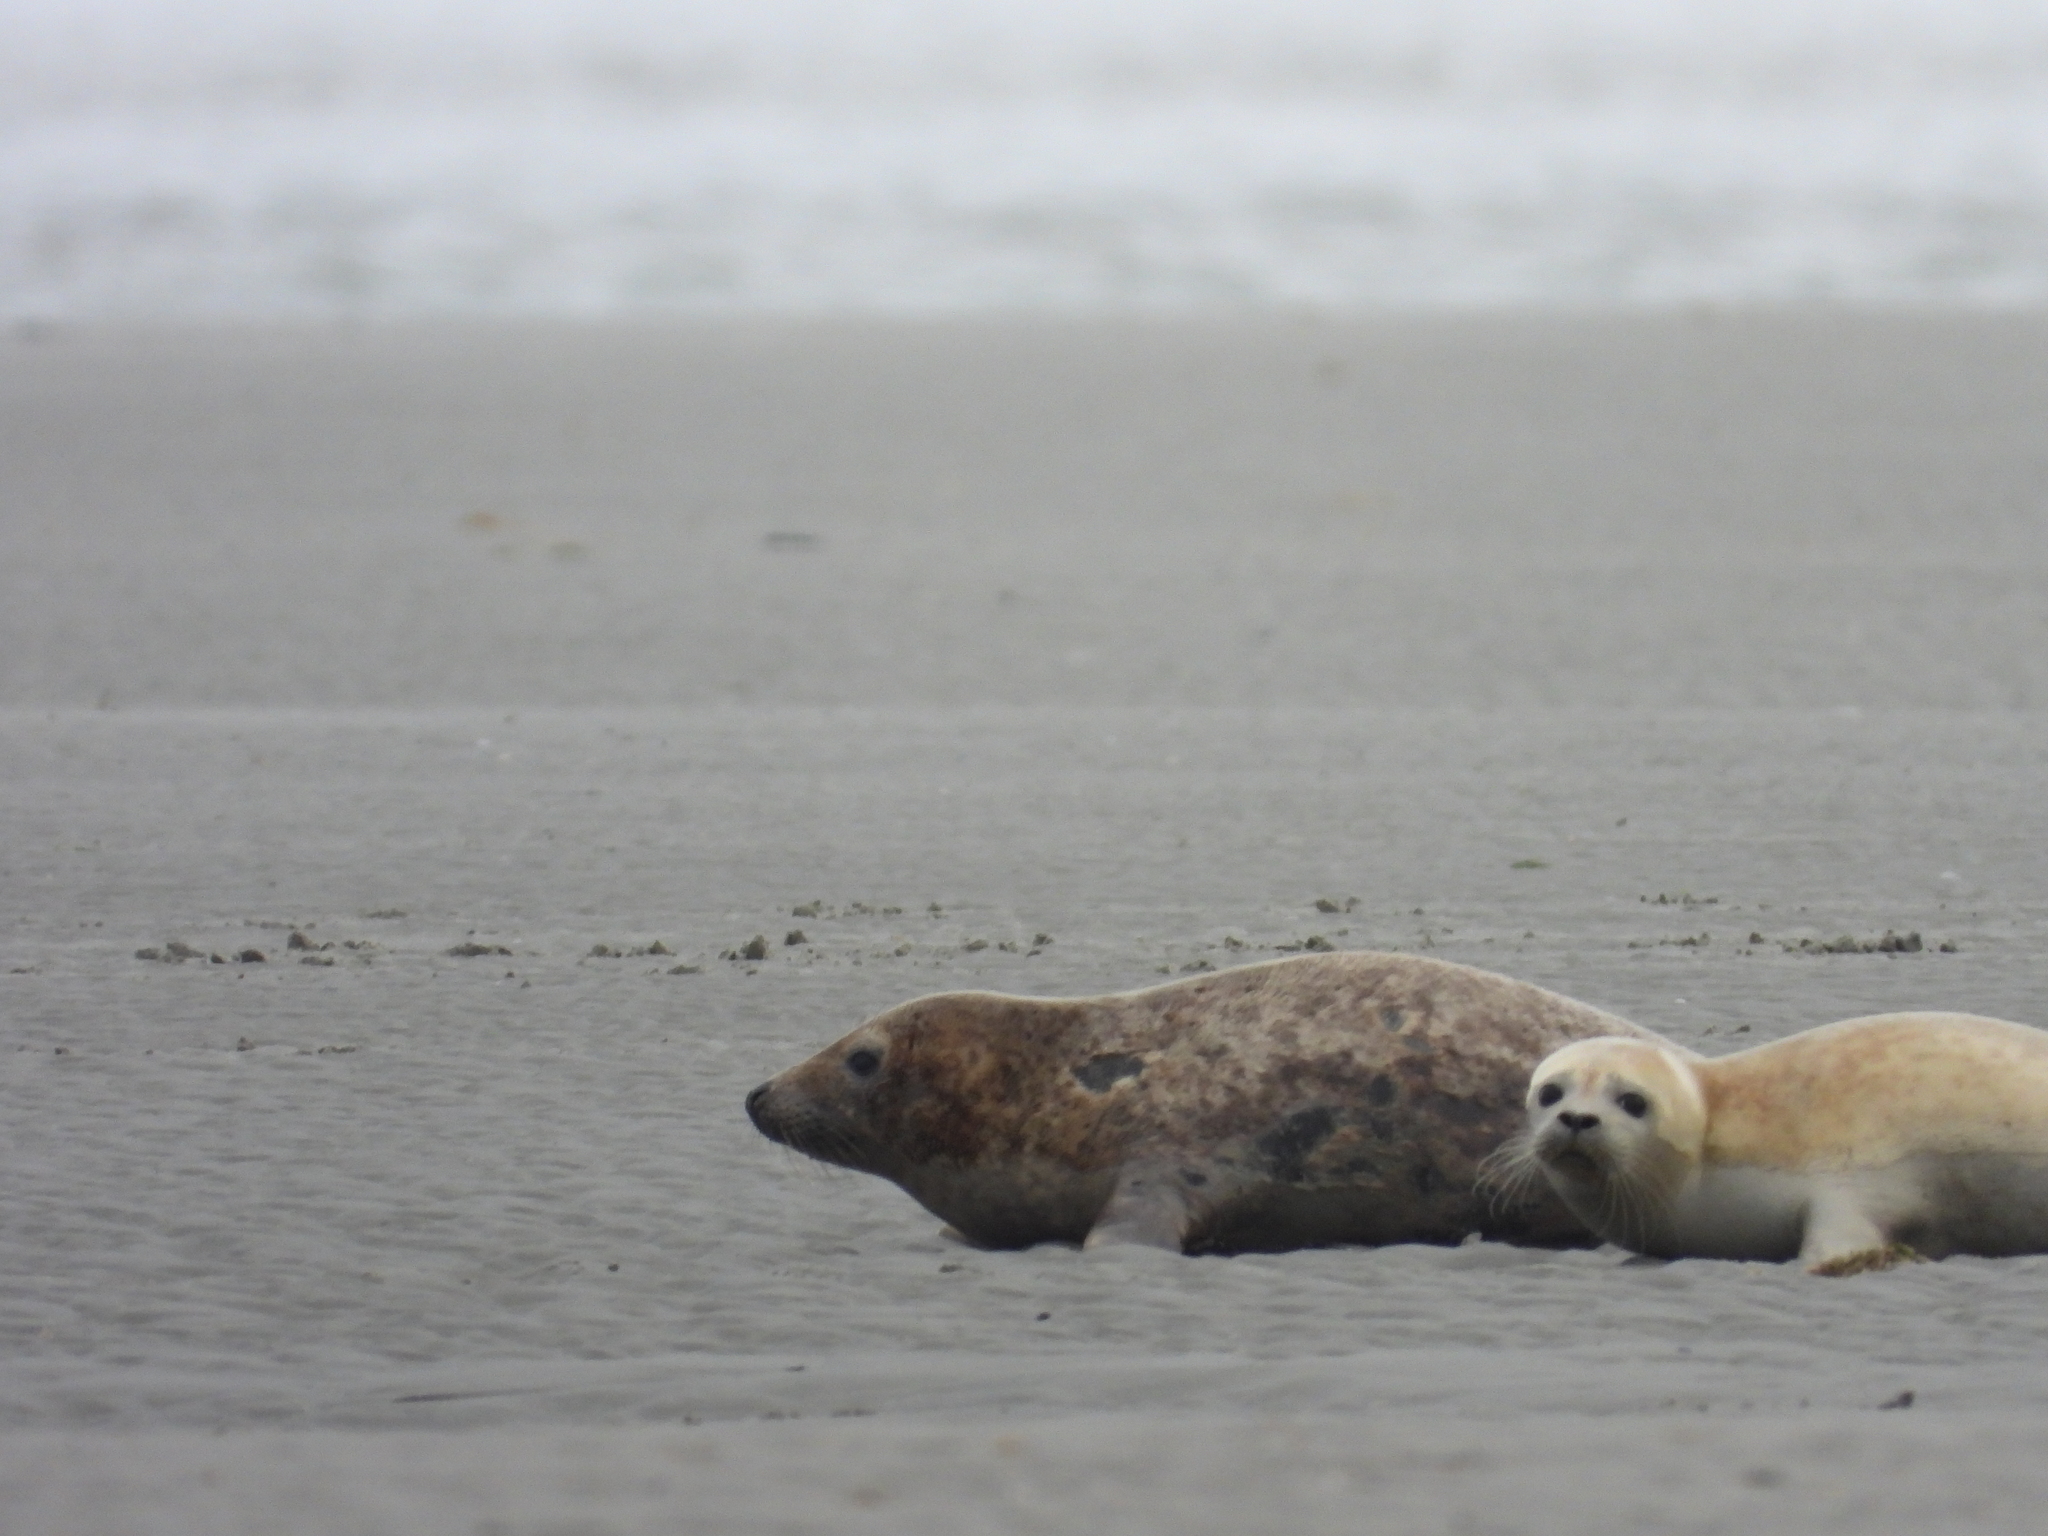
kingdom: Animalia
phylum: Chordata
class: Mammalia
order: Carnivora
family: Phocidae
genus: Halichoerus
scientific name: Halichoerus grypus
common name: Grey seal
